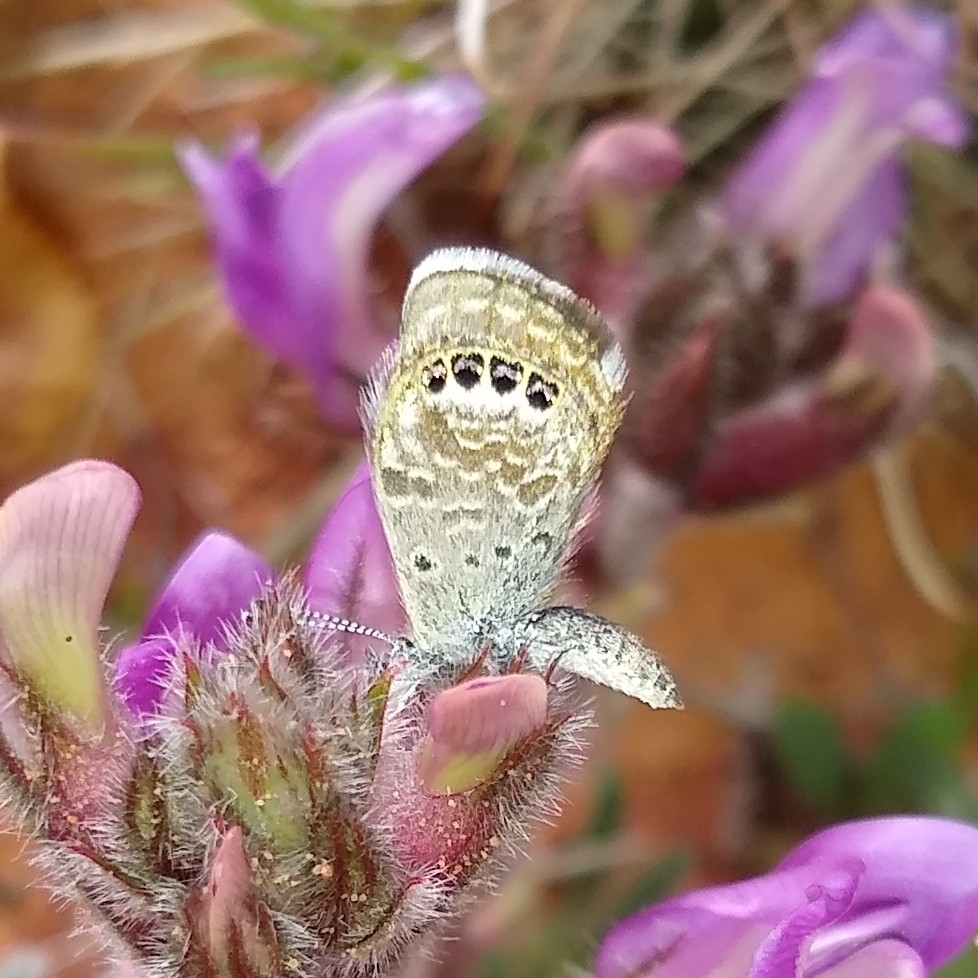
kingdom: Animalia
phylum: Arthropoda
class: Insecta
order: Lepidoptera
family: Lycaenidae
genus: Brephidium
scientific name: Brephidium exilis
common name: Pygmy blue
